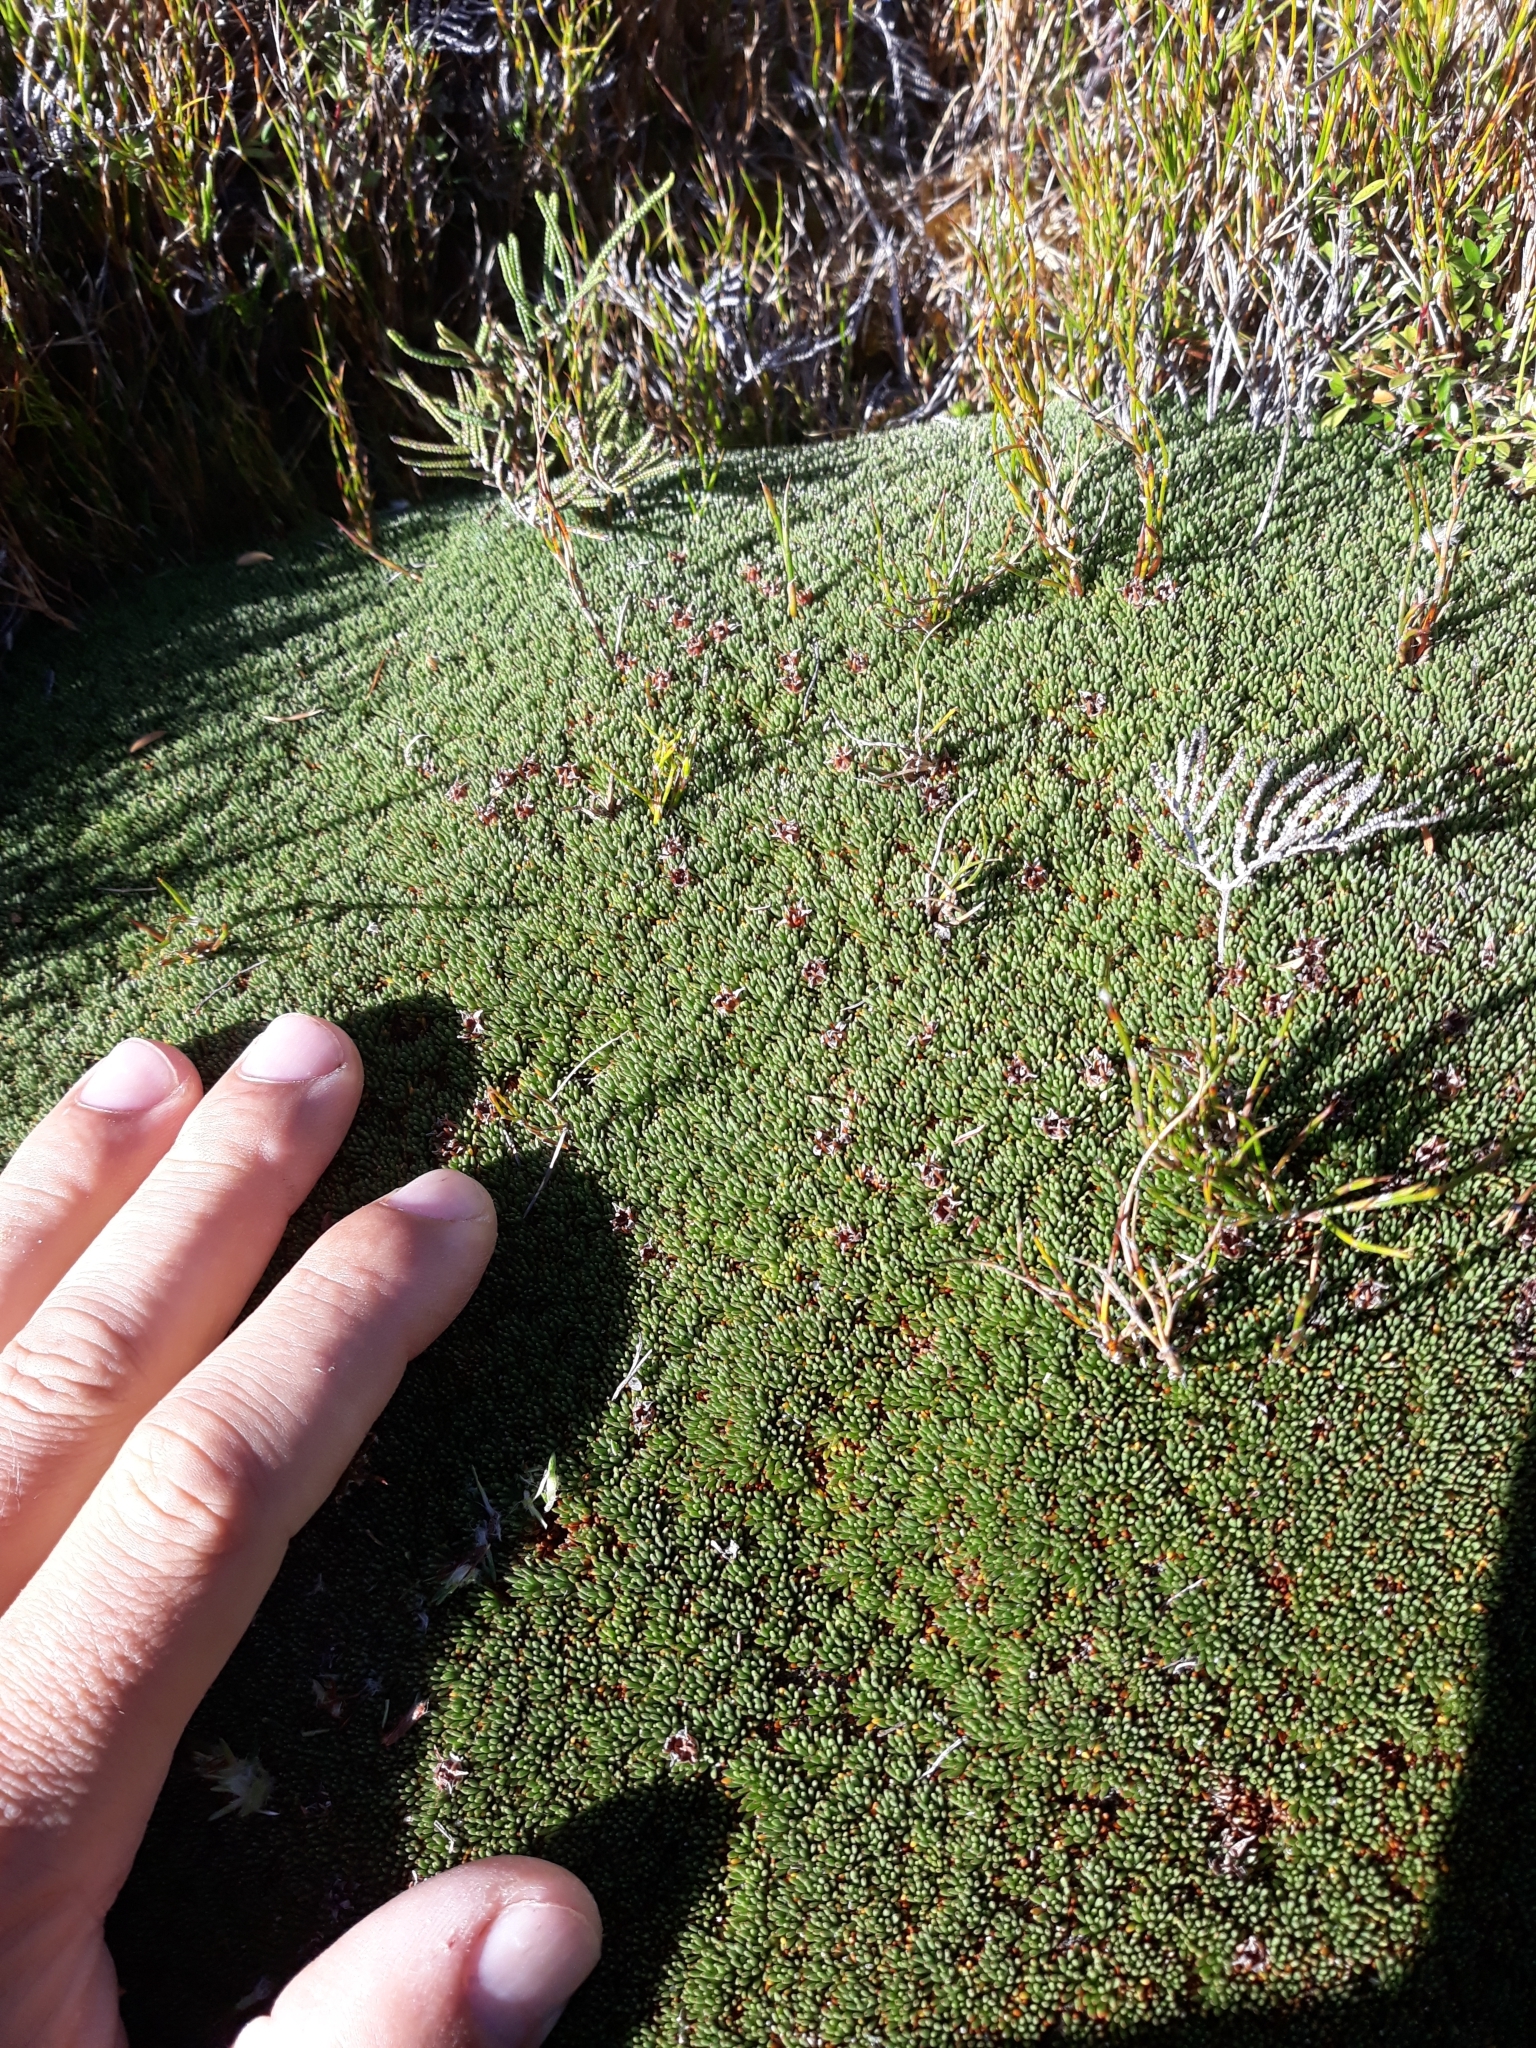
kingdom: Plantae
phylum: Tracheophyta
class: Magnoliopsida
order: Asterales
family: Stylidiaceae
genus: Donatia
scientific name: Donatia novae-zelandiae
